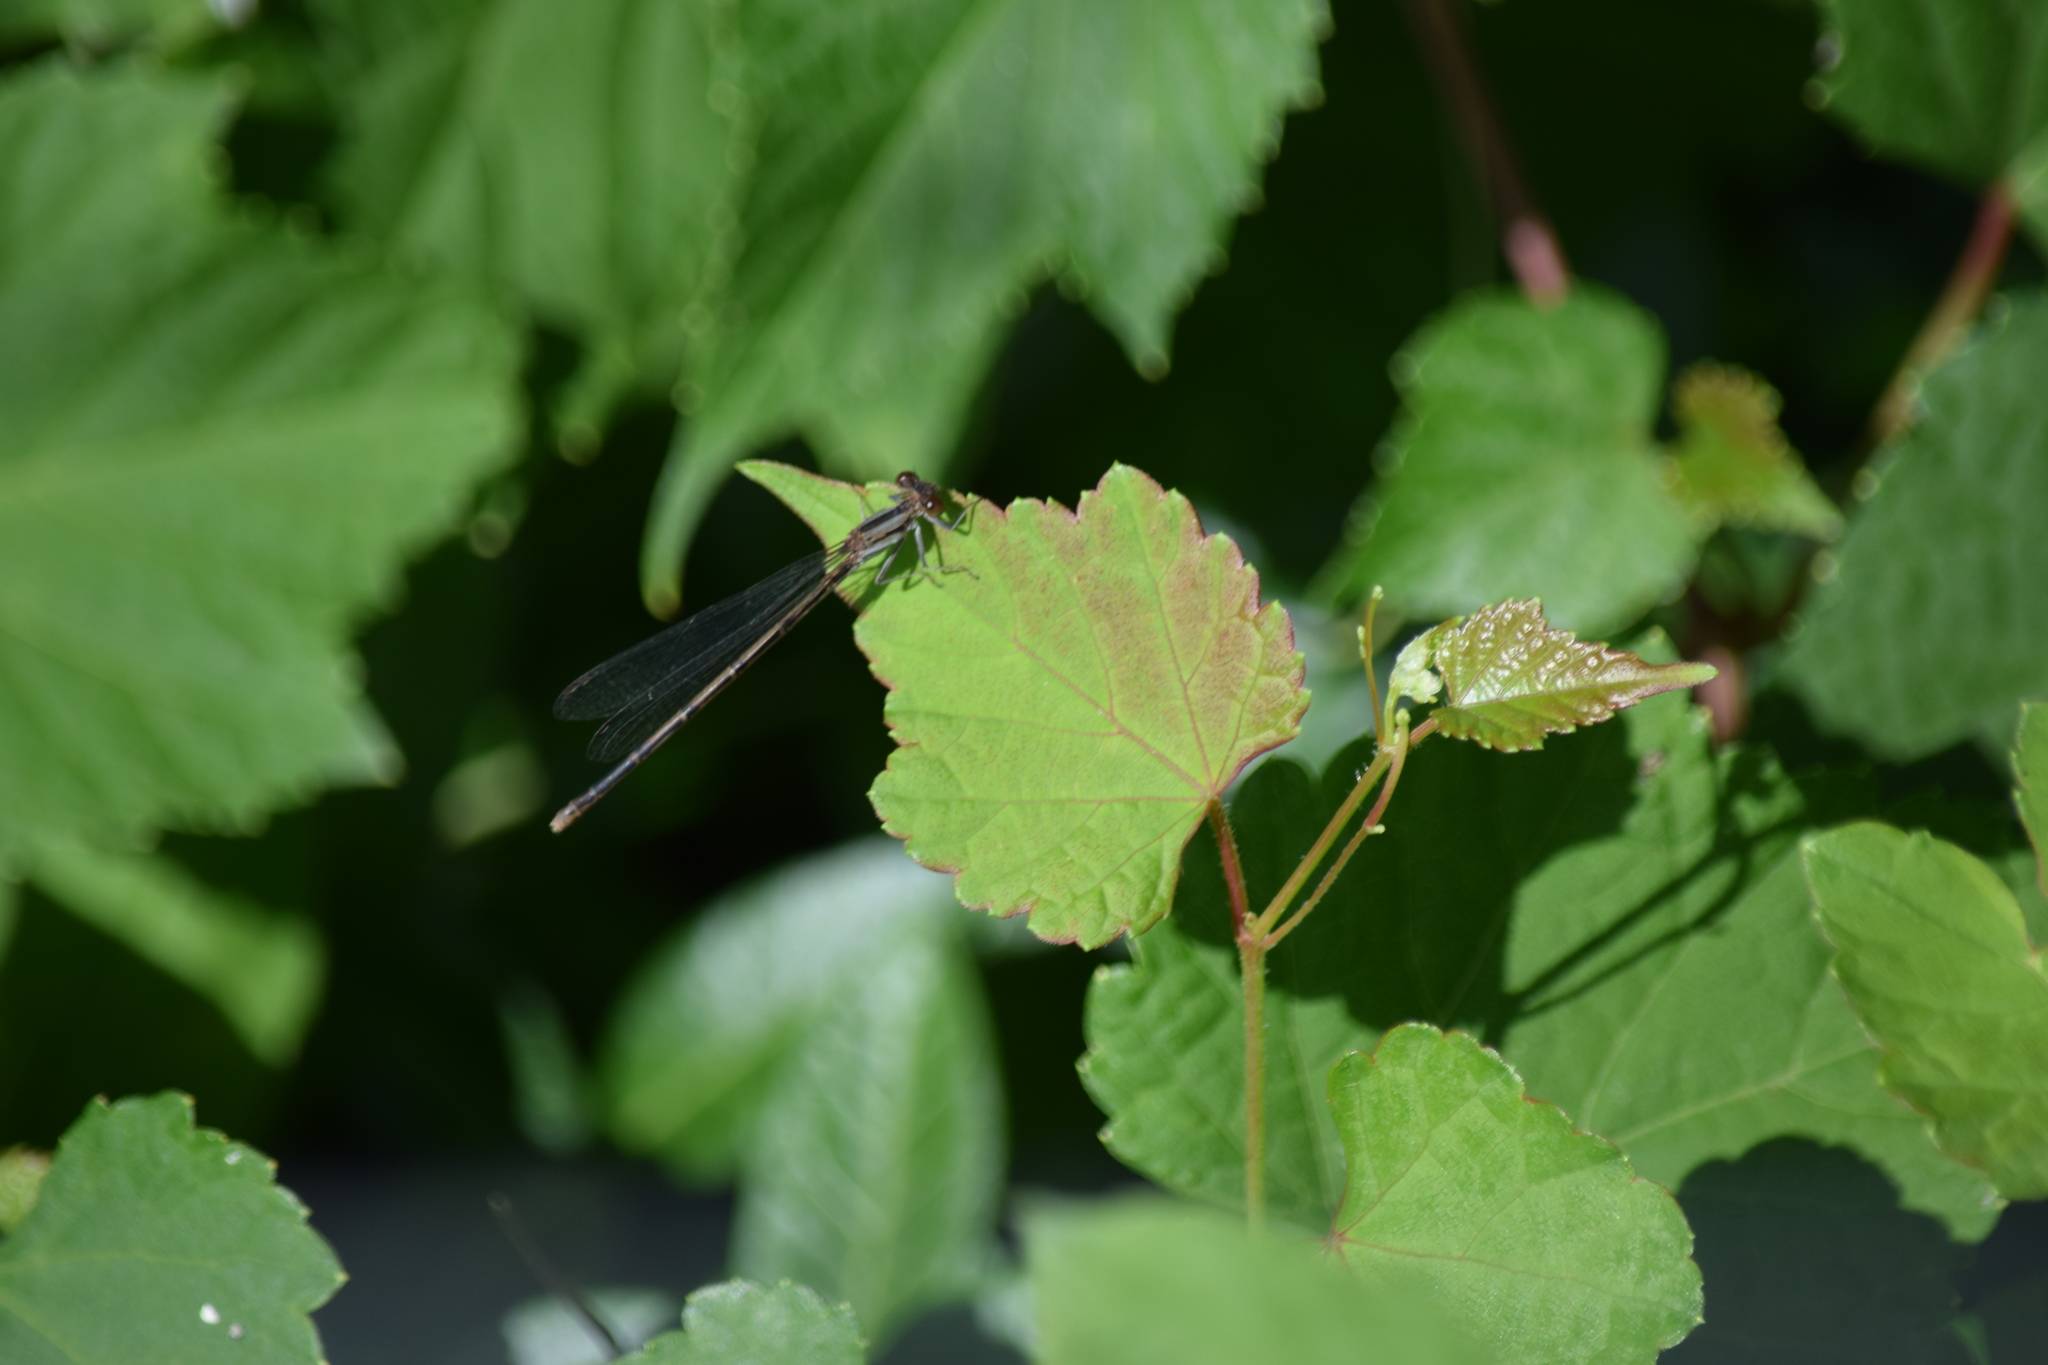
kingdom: Animalia
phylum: Arthropoda
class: Insecta
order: Odonata
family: Coenagrionidae
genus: Argia
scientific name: Argia fumipennis
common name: Variable dancer
